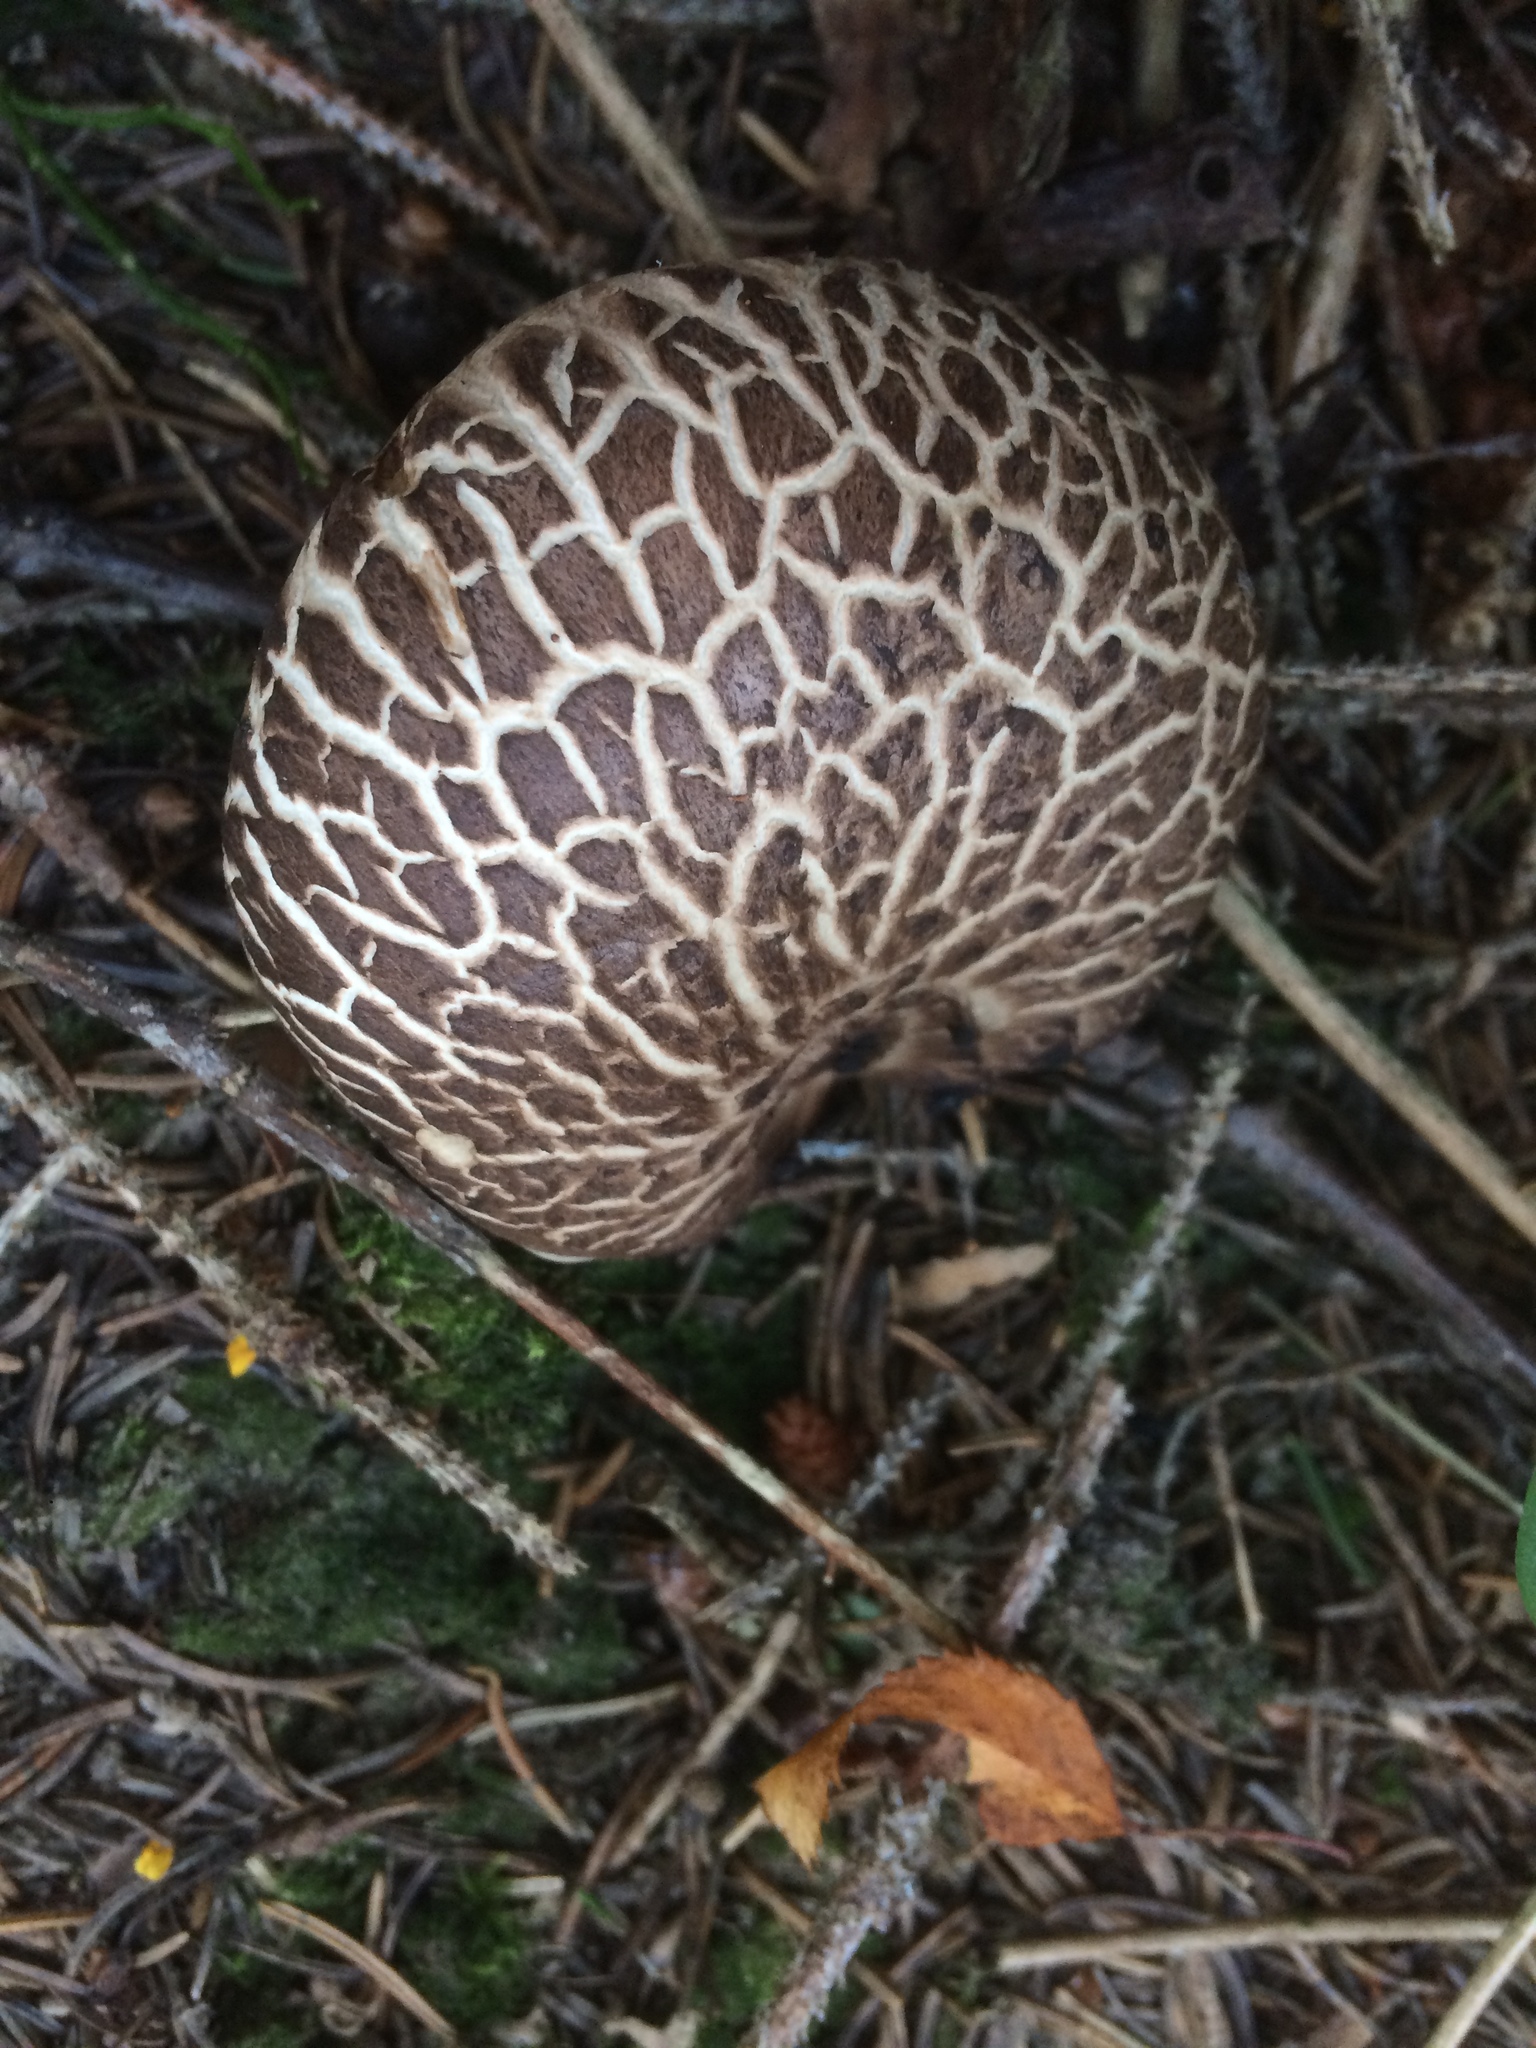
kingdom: Fungi
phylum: Basidiomycota
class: Agaricomycetes
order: Thelephorales
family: Bankeraceae
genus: Sarcodon
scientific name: Sarcodon imbricatus
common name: Shingled hedgehog
